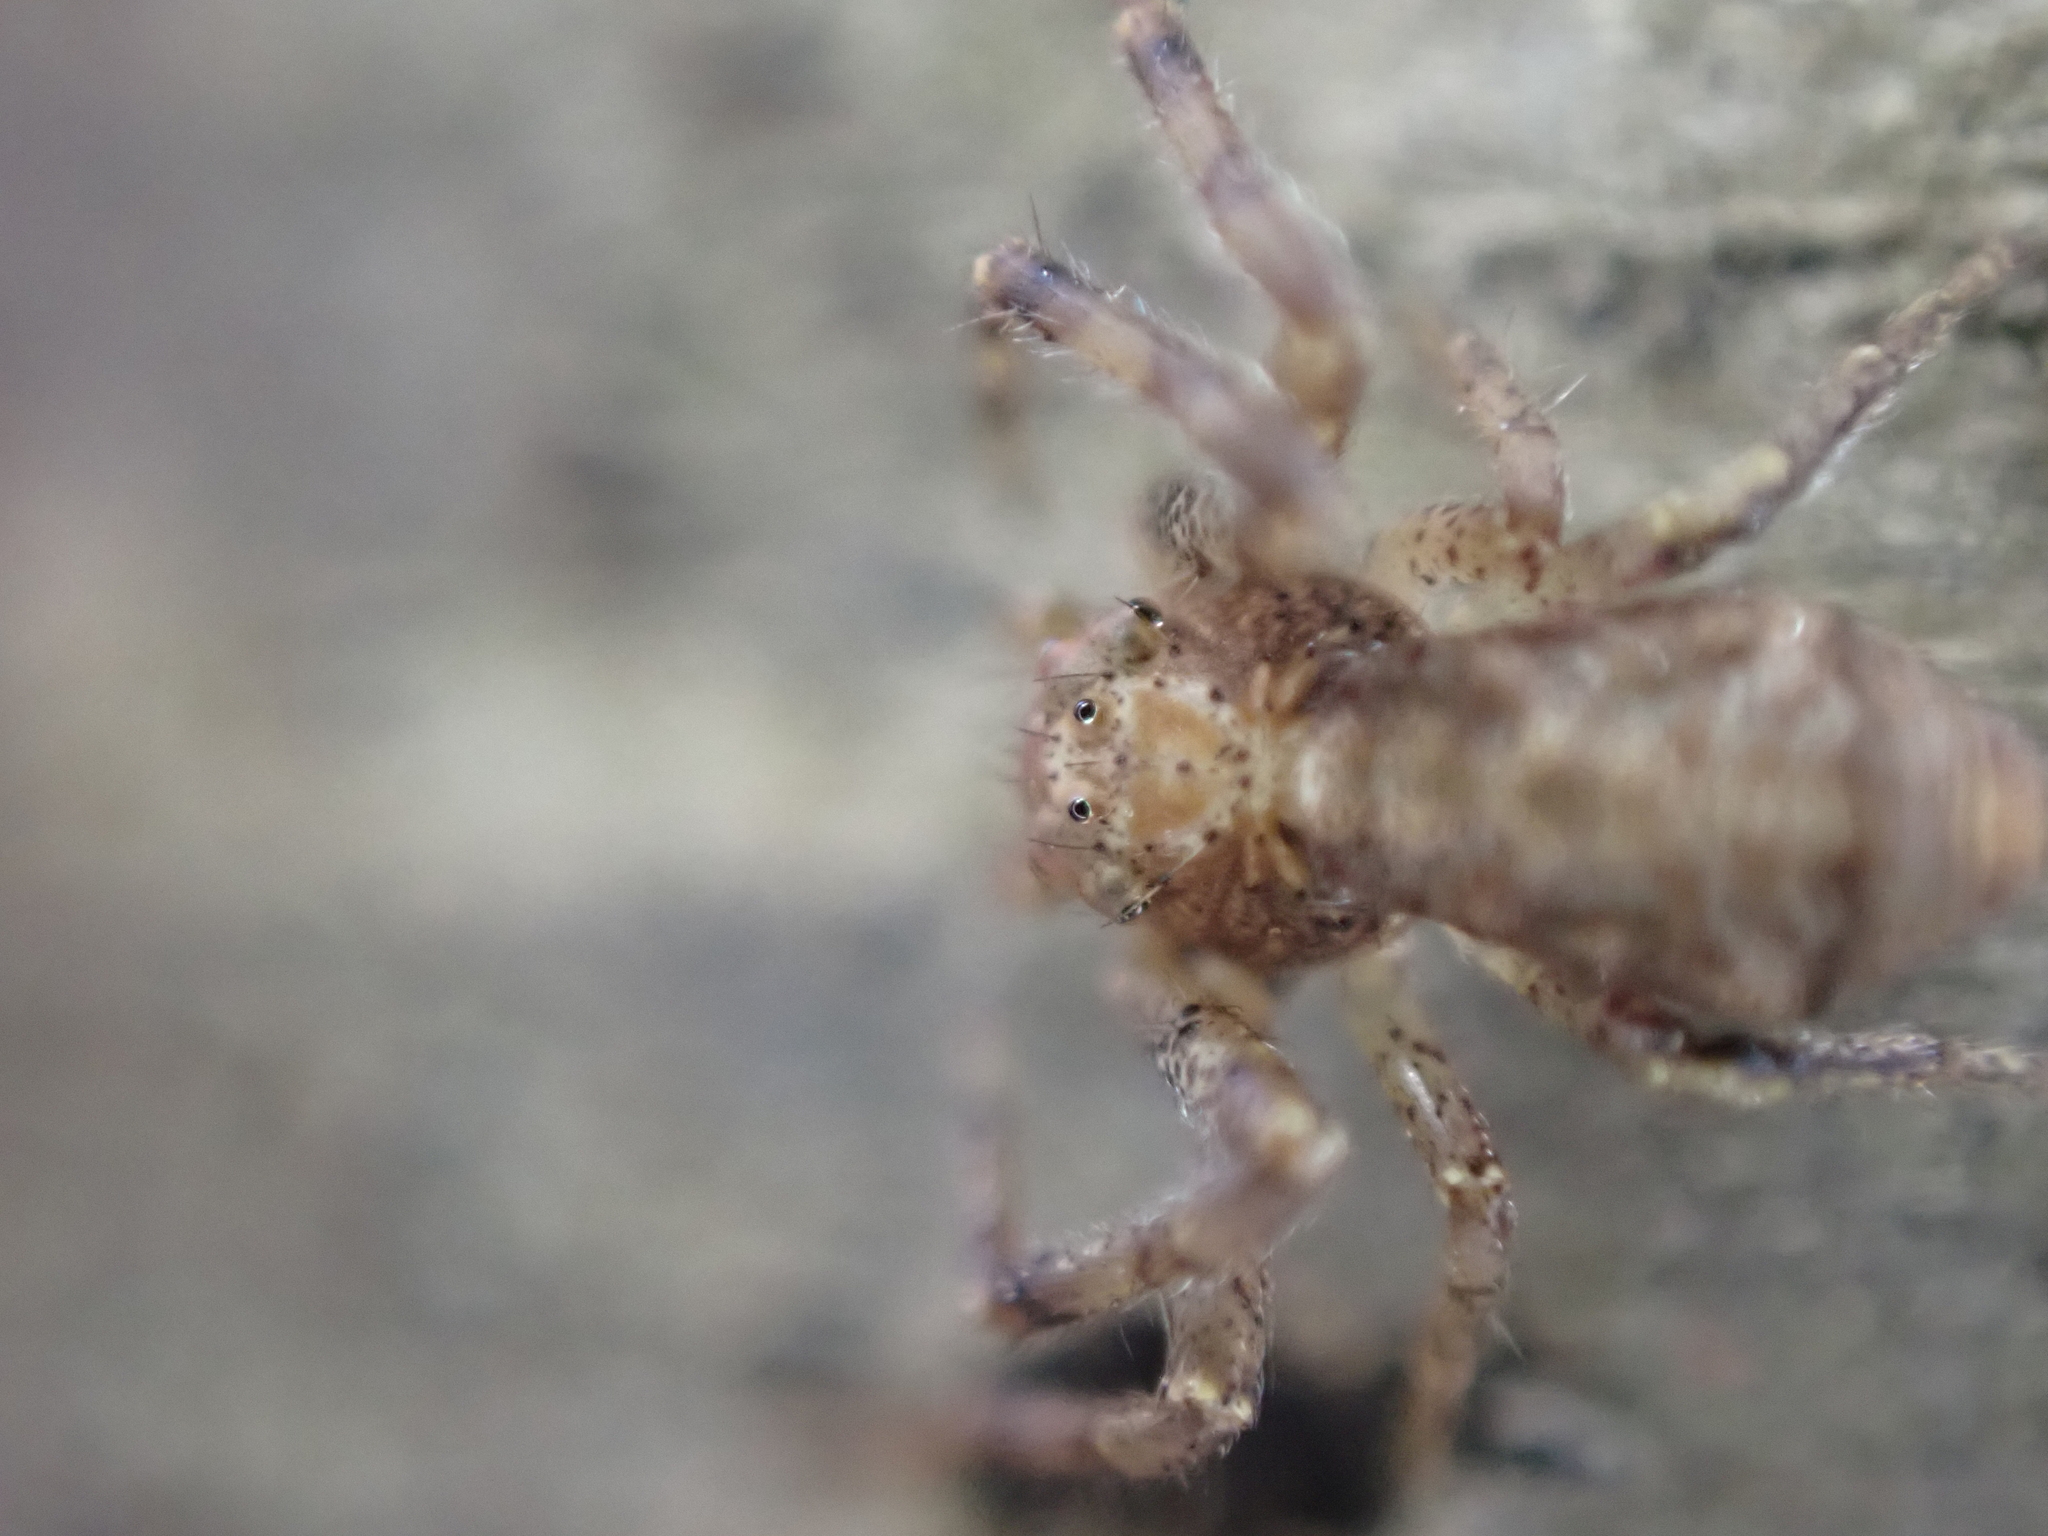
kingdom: Animalia
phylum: Arthropoda
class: Arachnida
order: Araneae
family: Thomisidae
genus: Tmarus
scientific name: Tmarus angulatus
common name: Tuberculated crab spider
